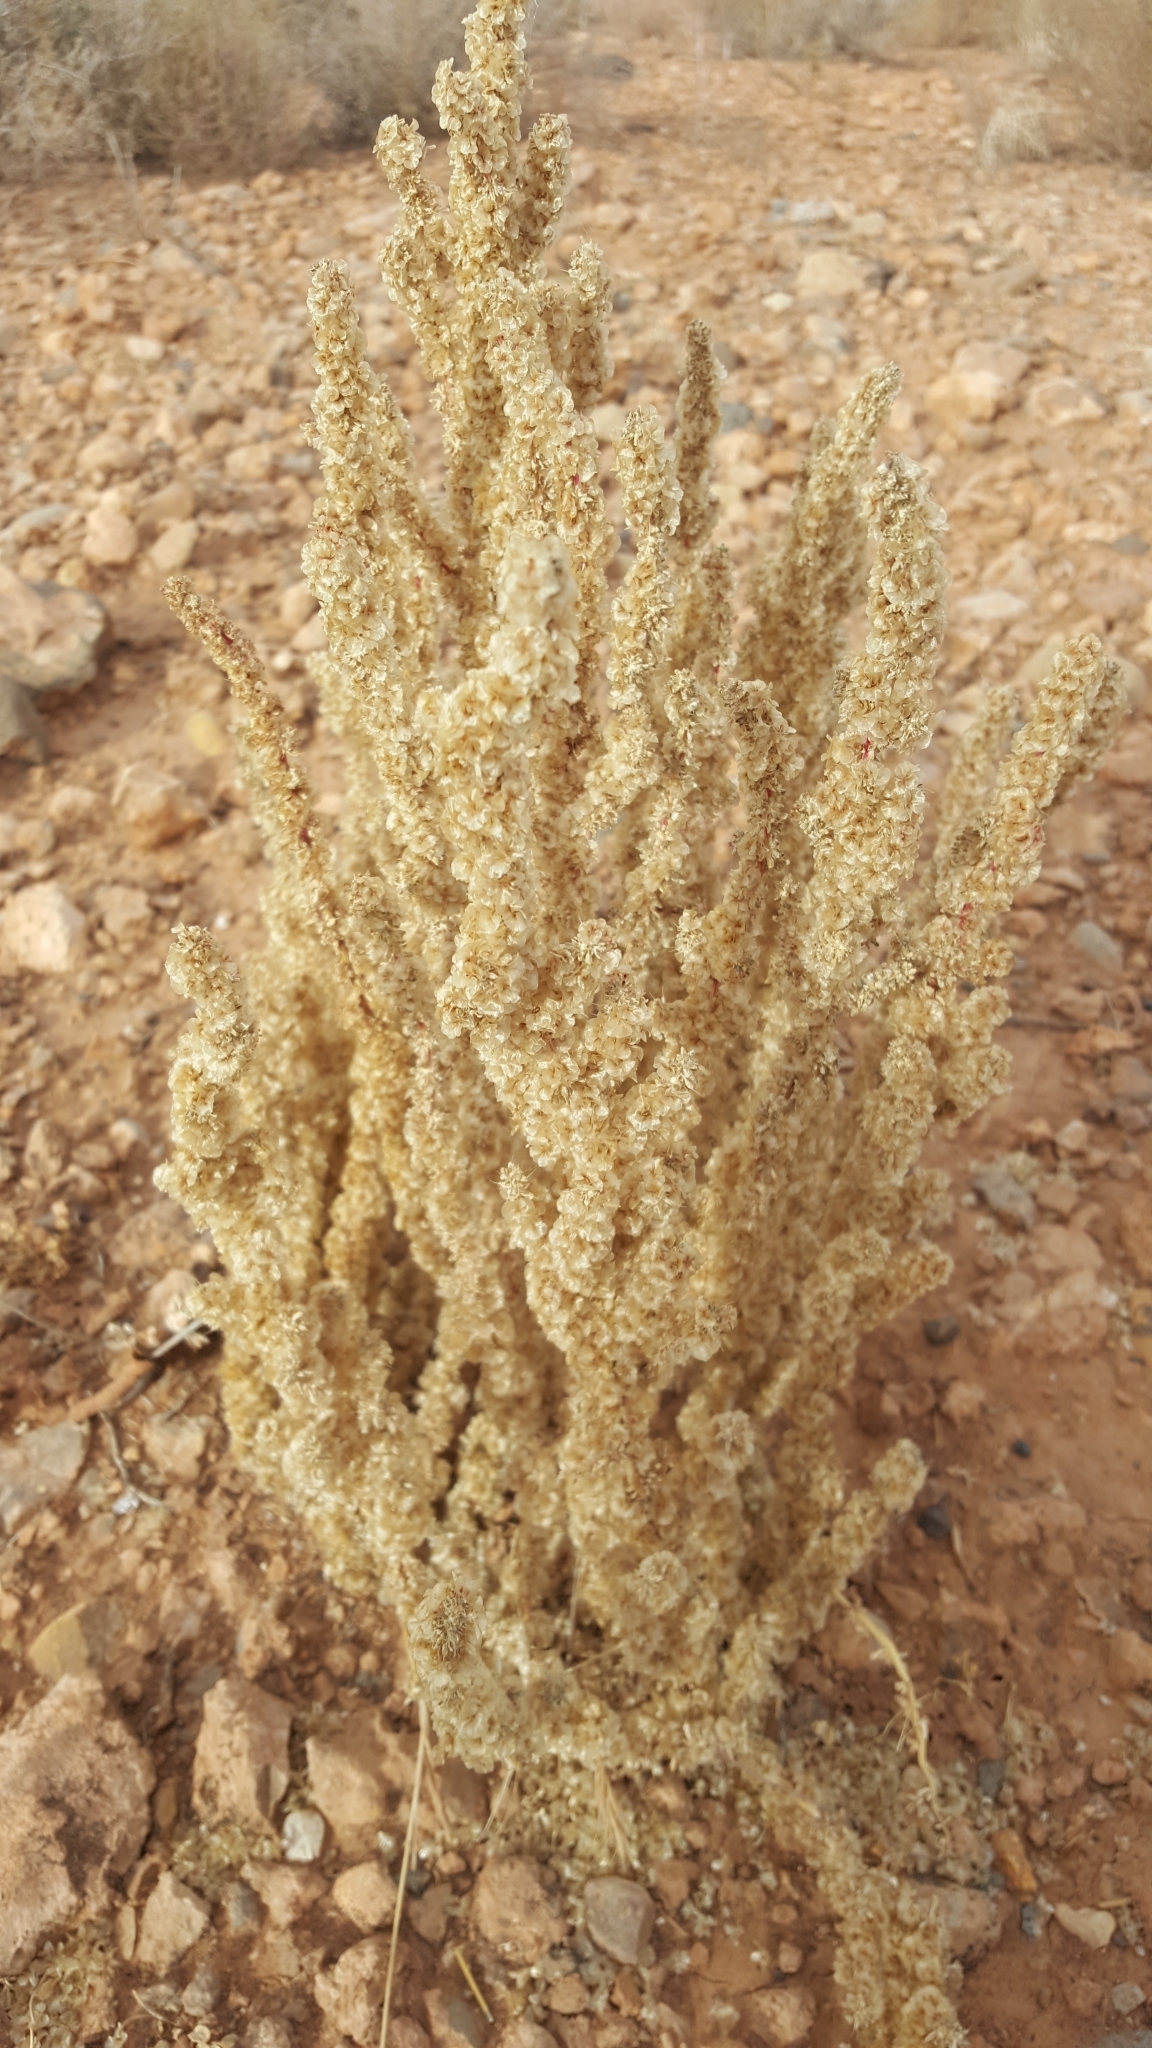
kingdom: Plantae
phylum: Tracheophyta
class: Magnoliopsida
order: Caryophyllales
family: Amaranthaceae
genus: Halogeton
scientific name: Halogeton glomeratus
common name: Saltlover
